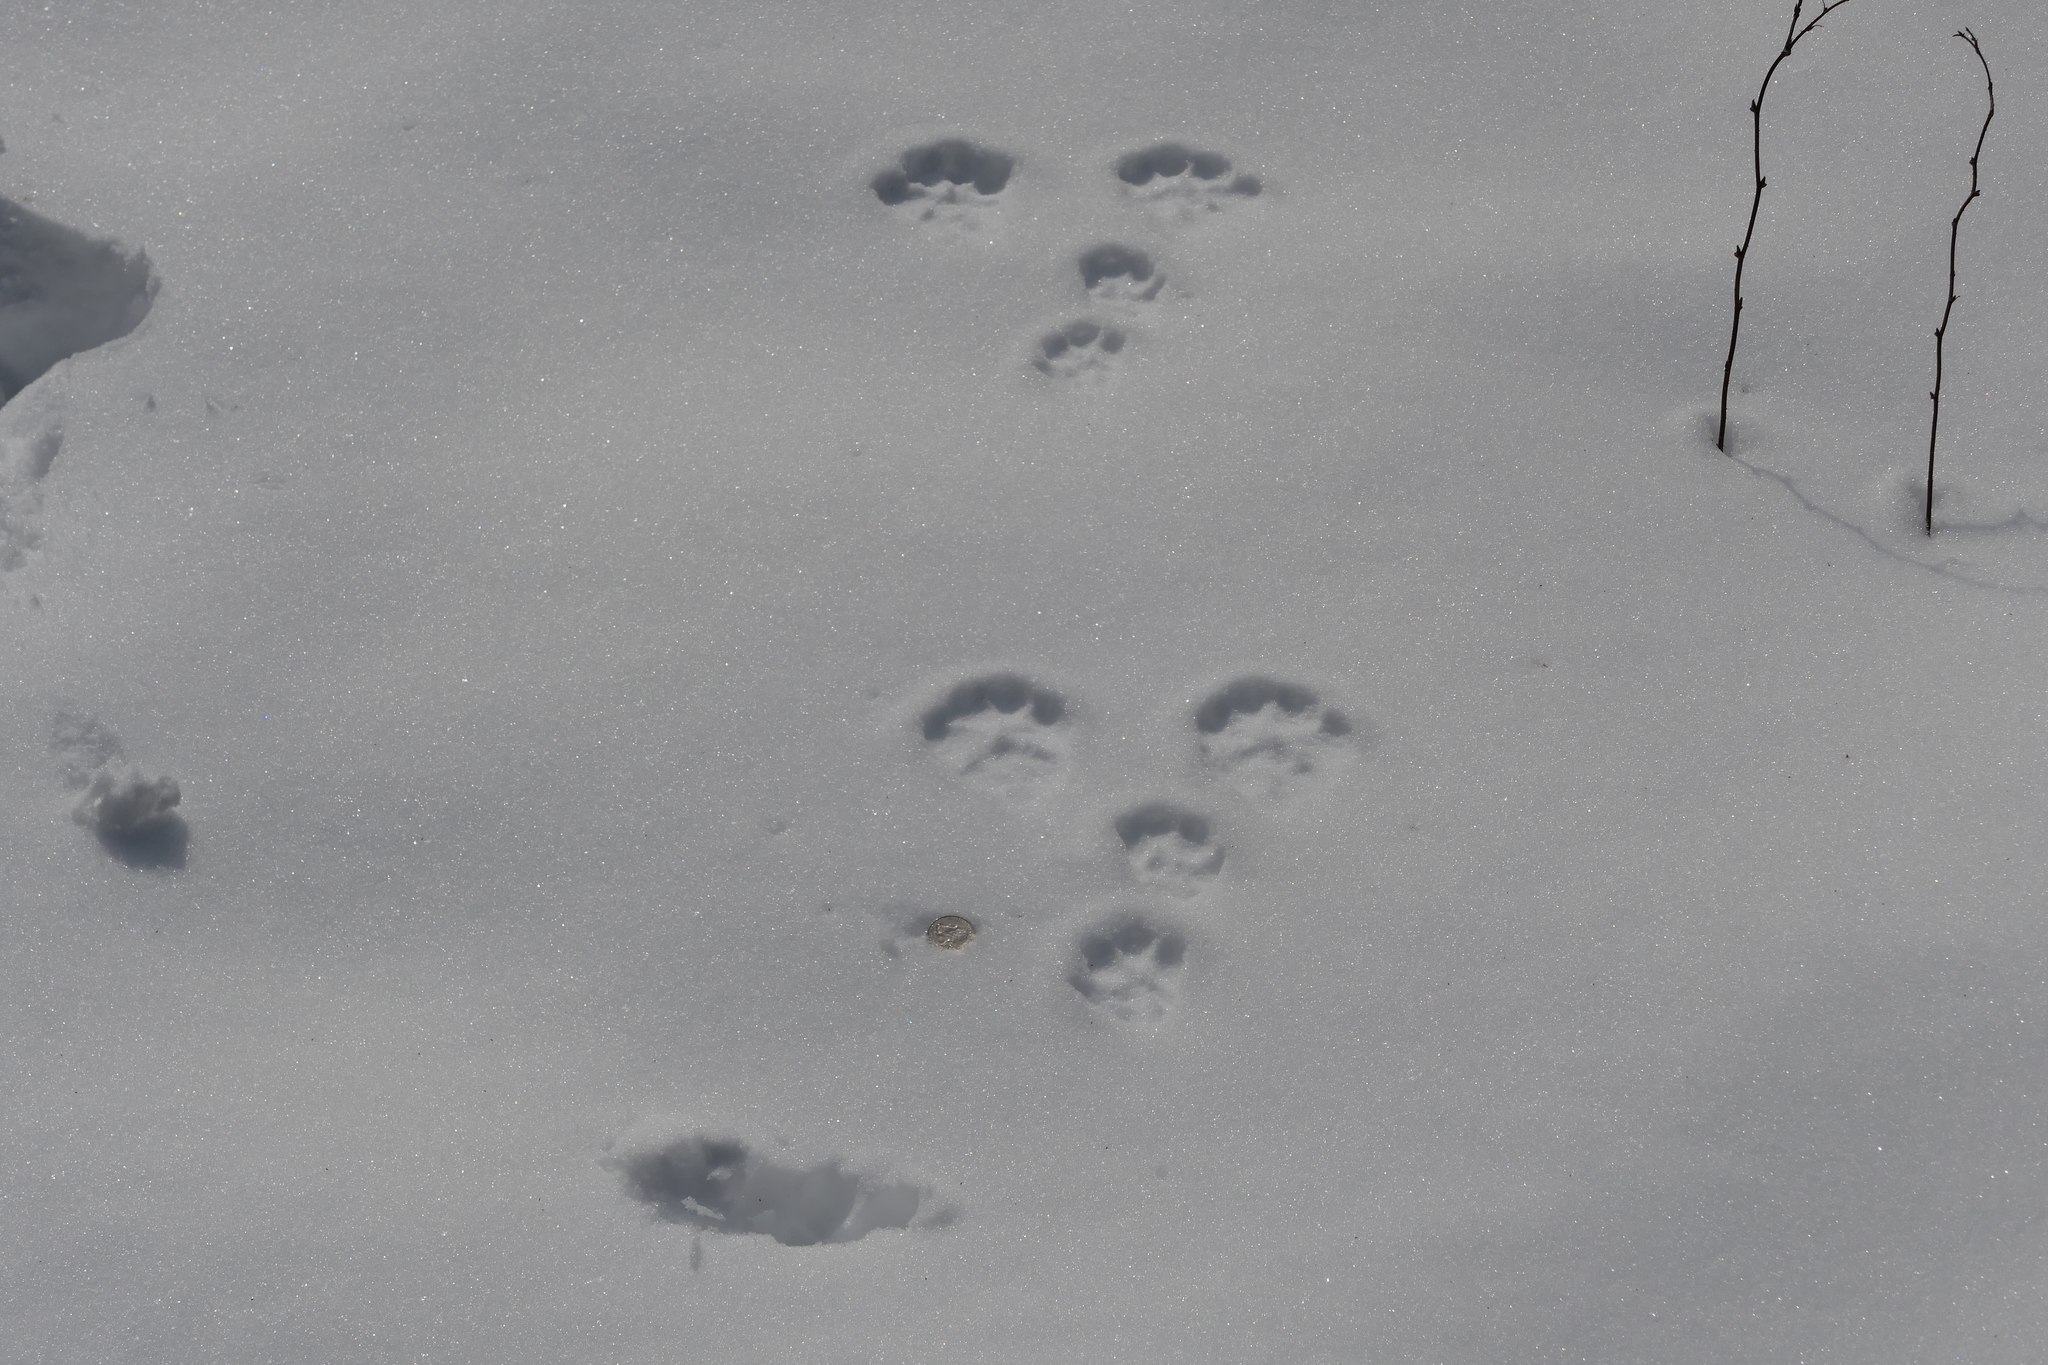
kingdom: Animalia
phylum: Chordata
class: Mammalia
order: Lagomorpha
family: Leporidae
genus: Lepus
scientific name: Lepus americanus
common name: Snowshoe hare
